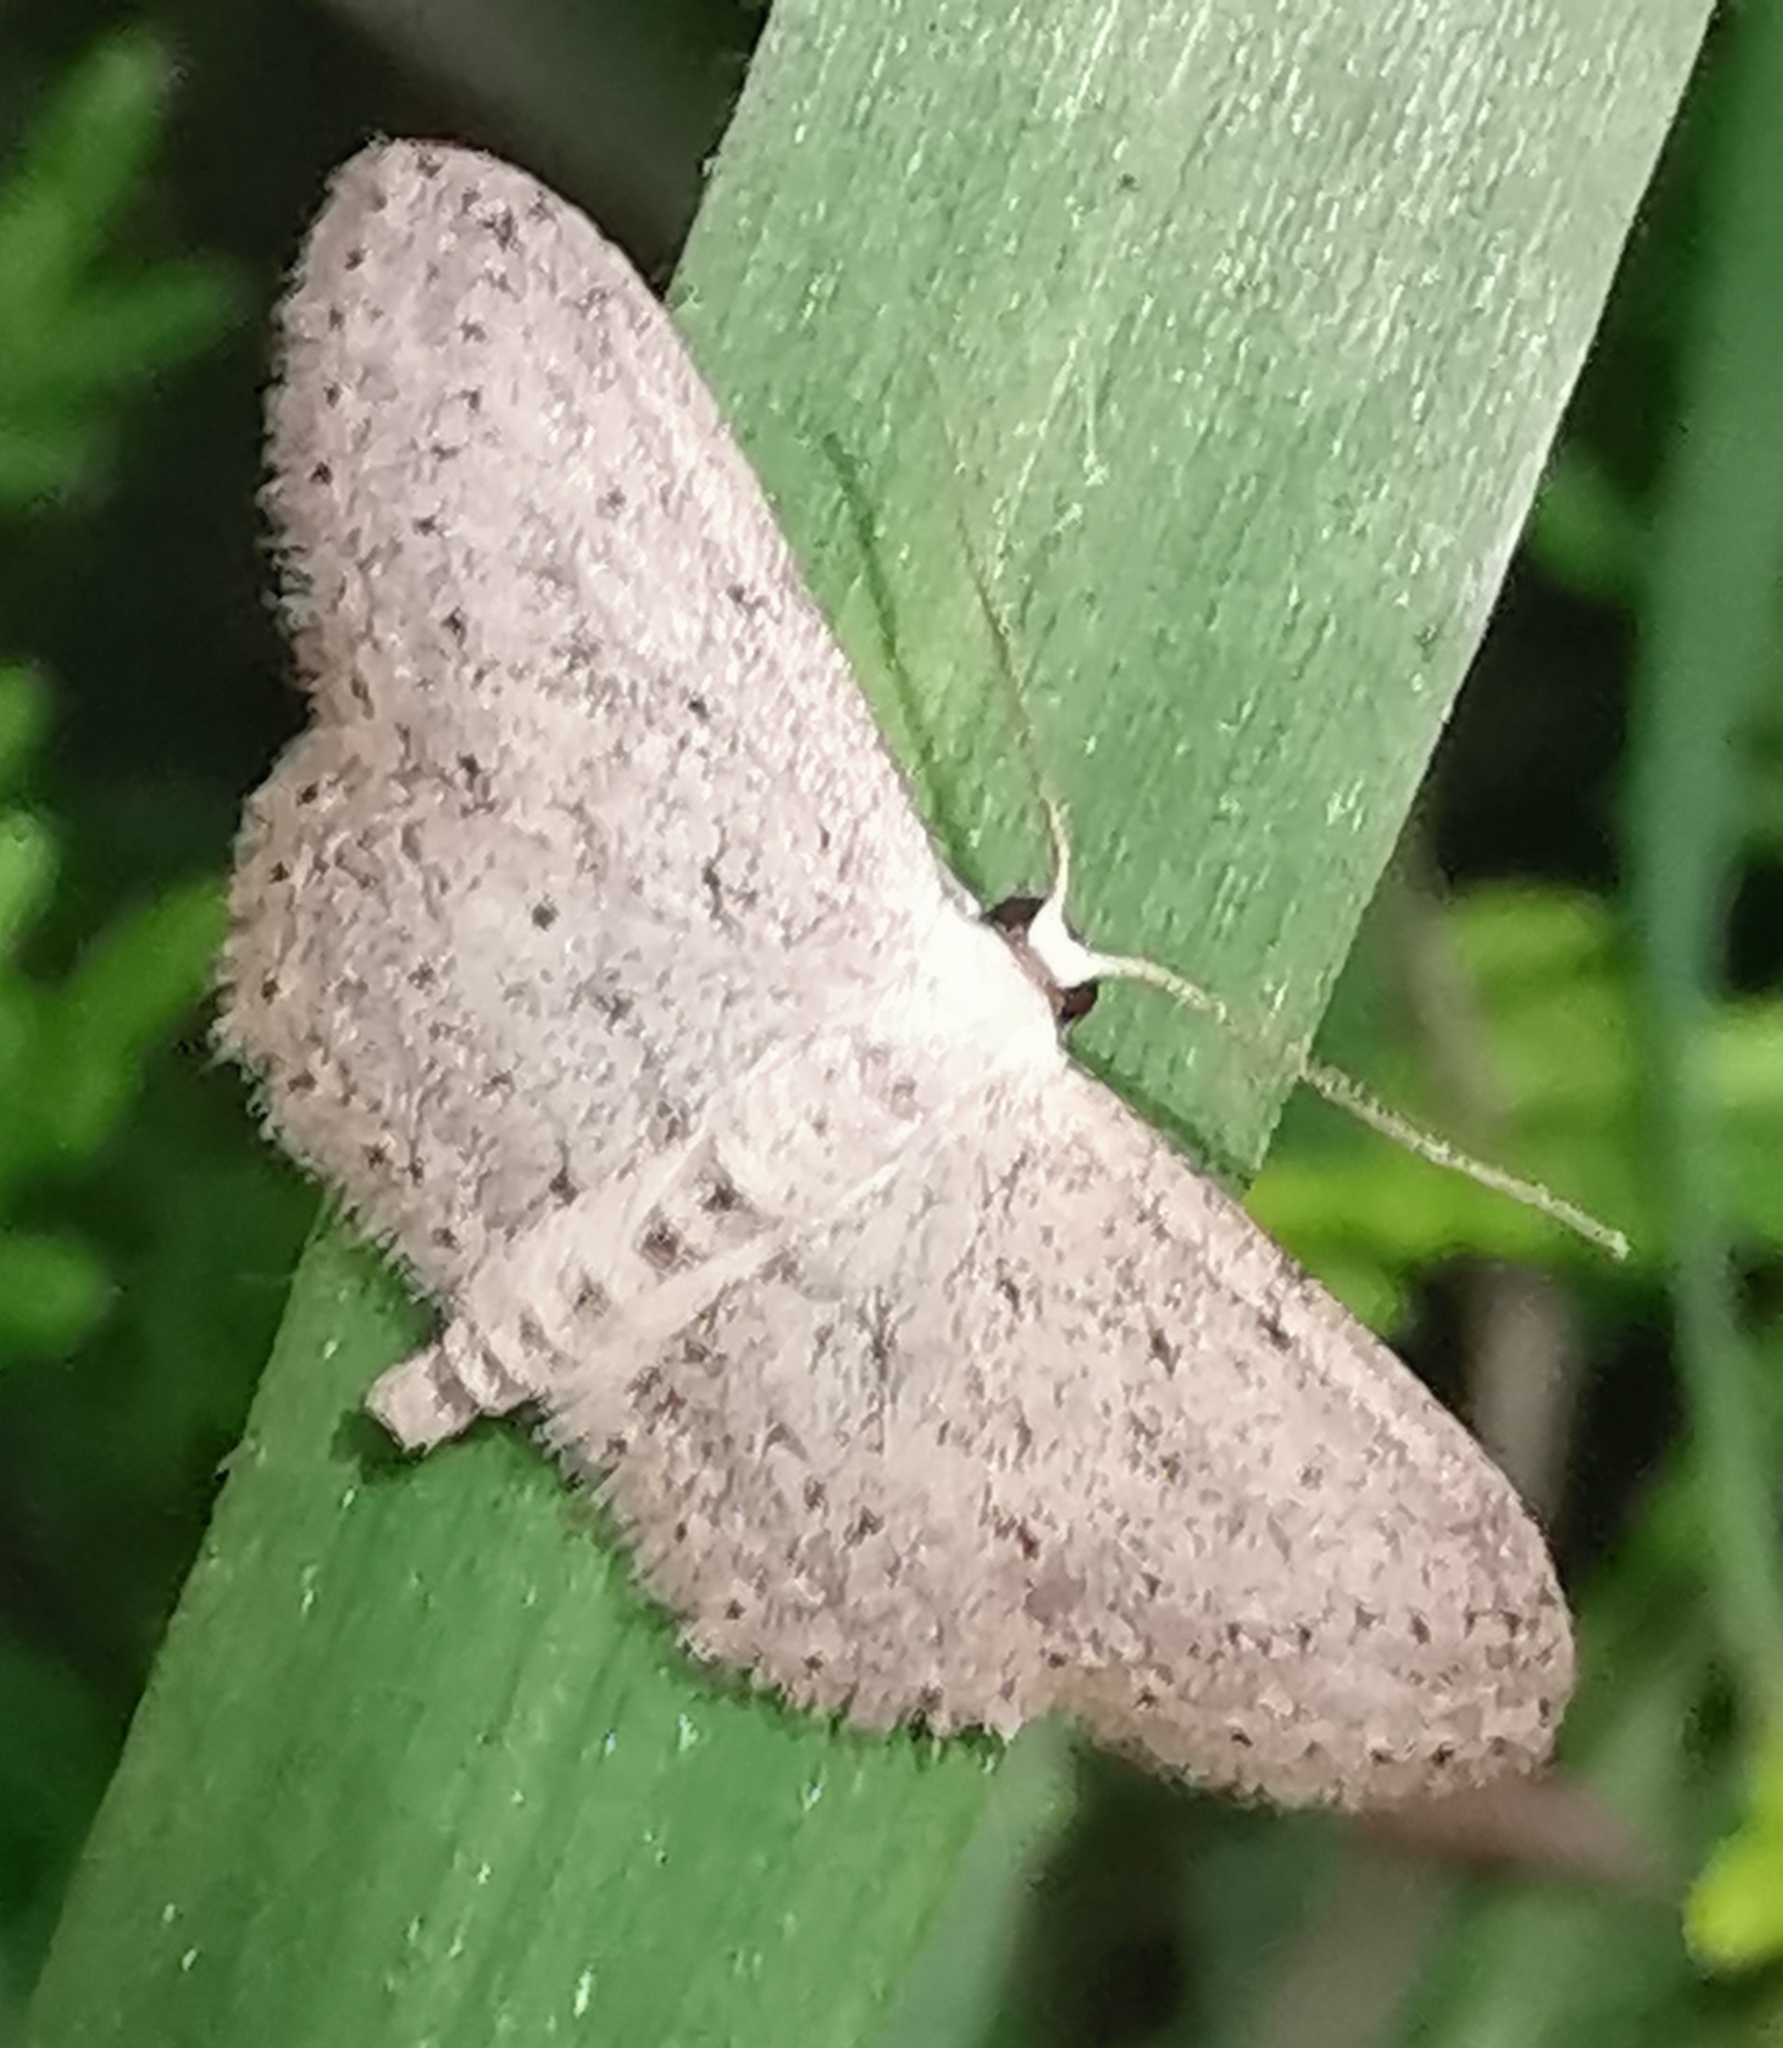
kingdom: Animalia
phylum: Arthropoda
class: Insecta
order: Lepidoptera
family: Geometridae
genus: Idaea
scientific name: Idaea seriata
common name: Small dusty wave
